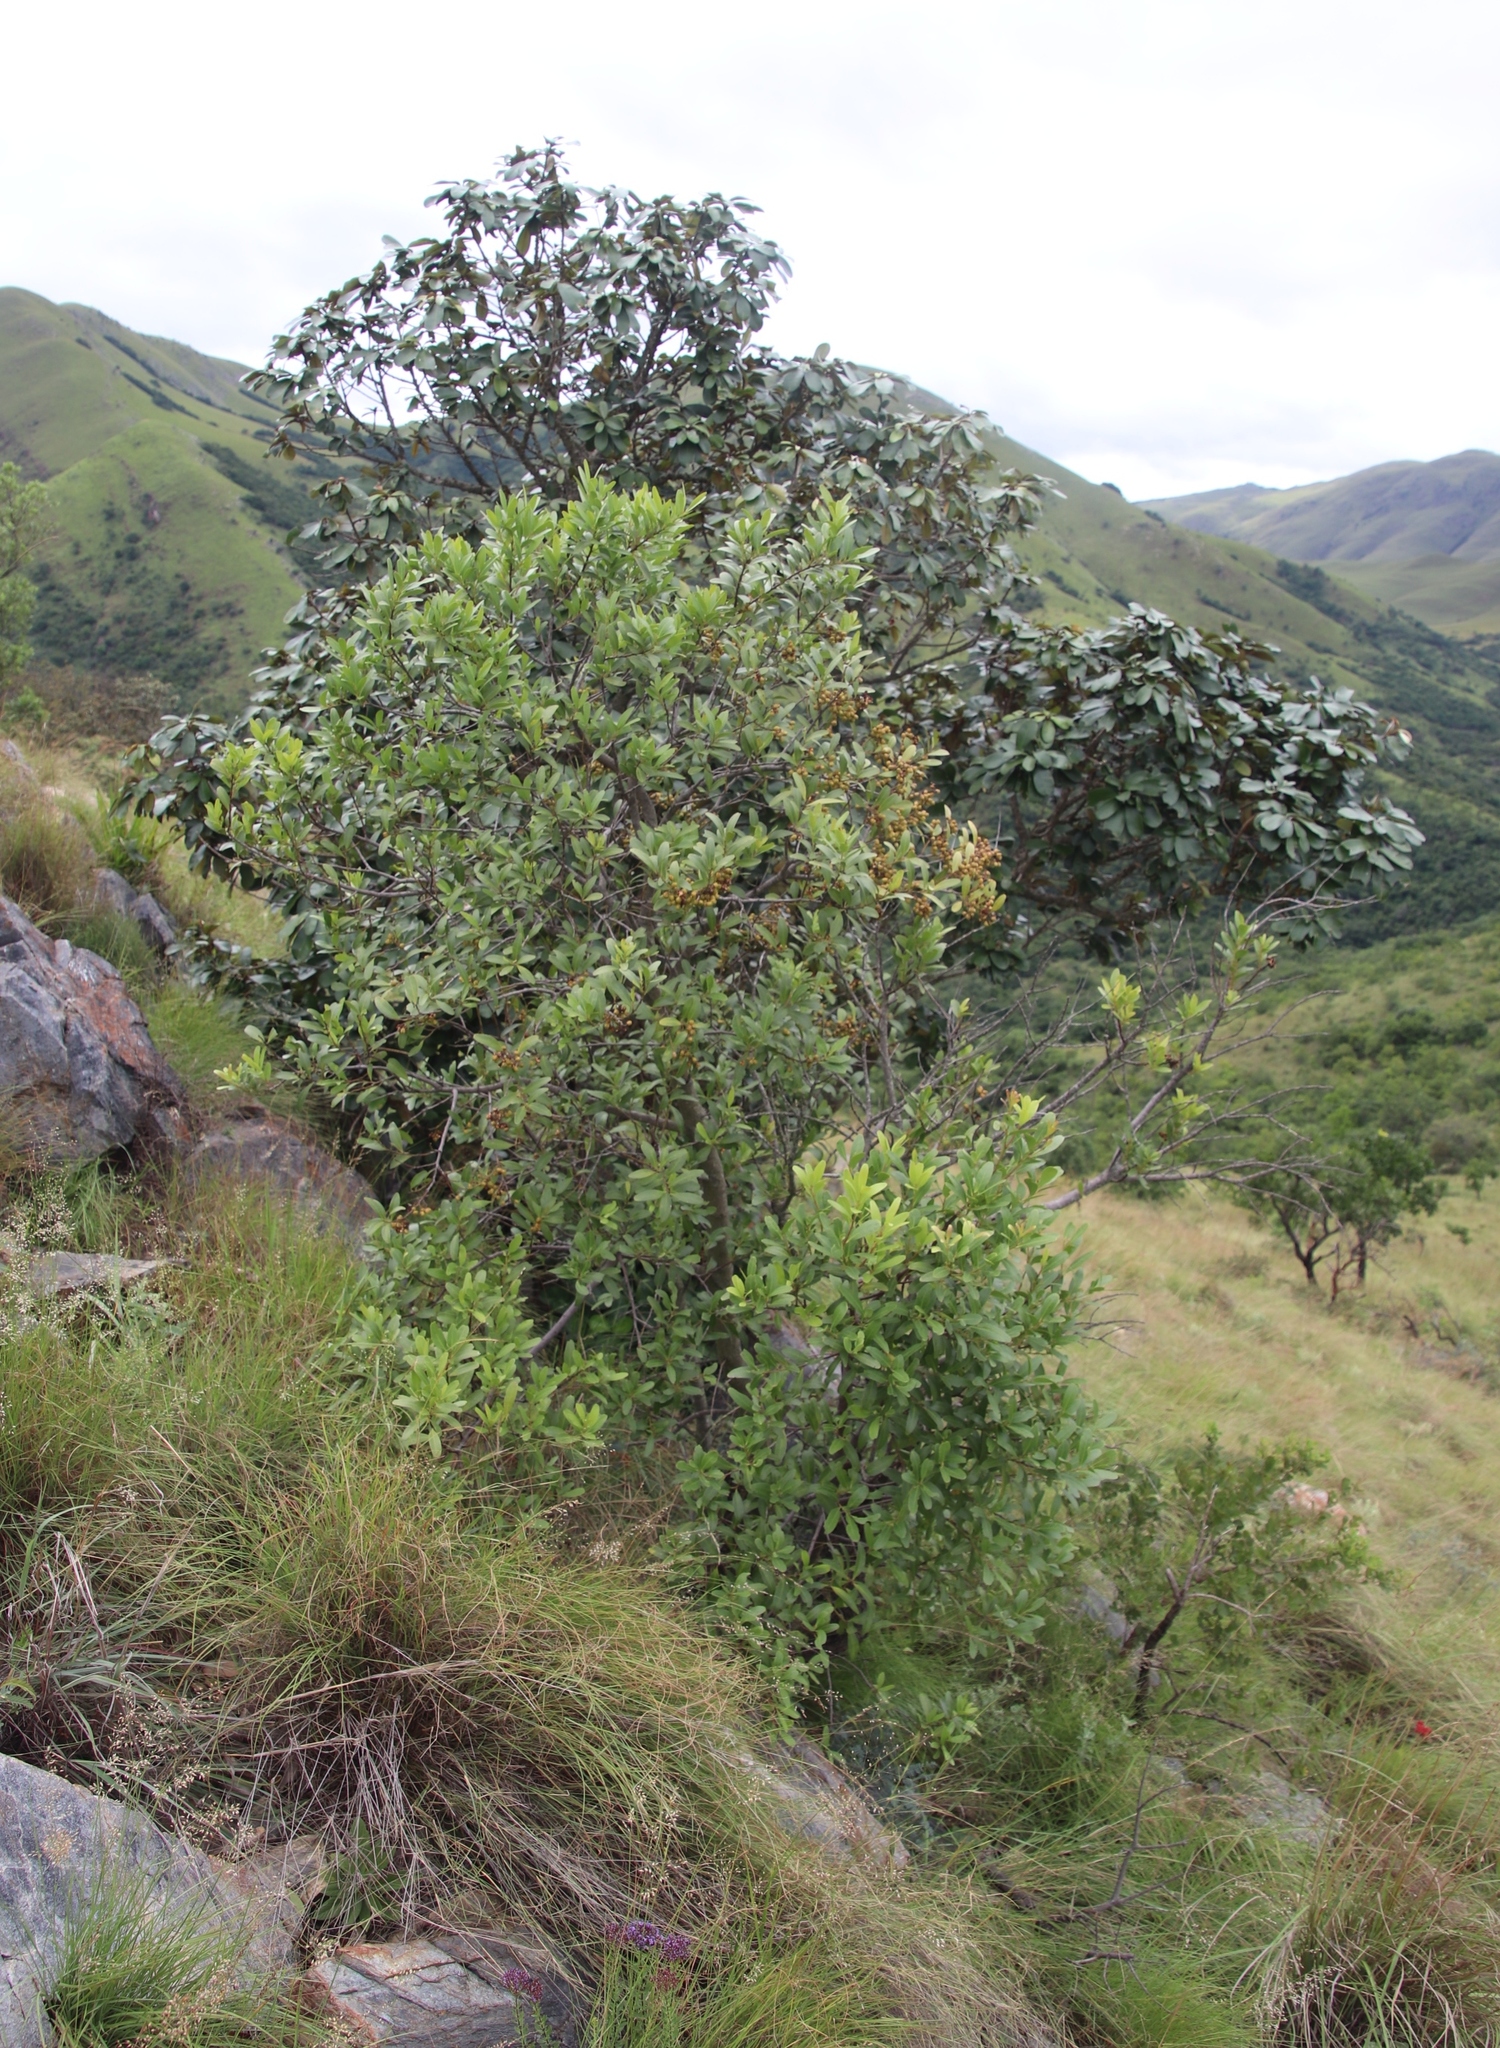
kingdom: Plantae
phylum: Tracheophyta
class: Magnoliopsida
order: Celastrales
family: Celastraceae
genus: Pterocelastrus
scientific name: Pterocelastrus echinatus
